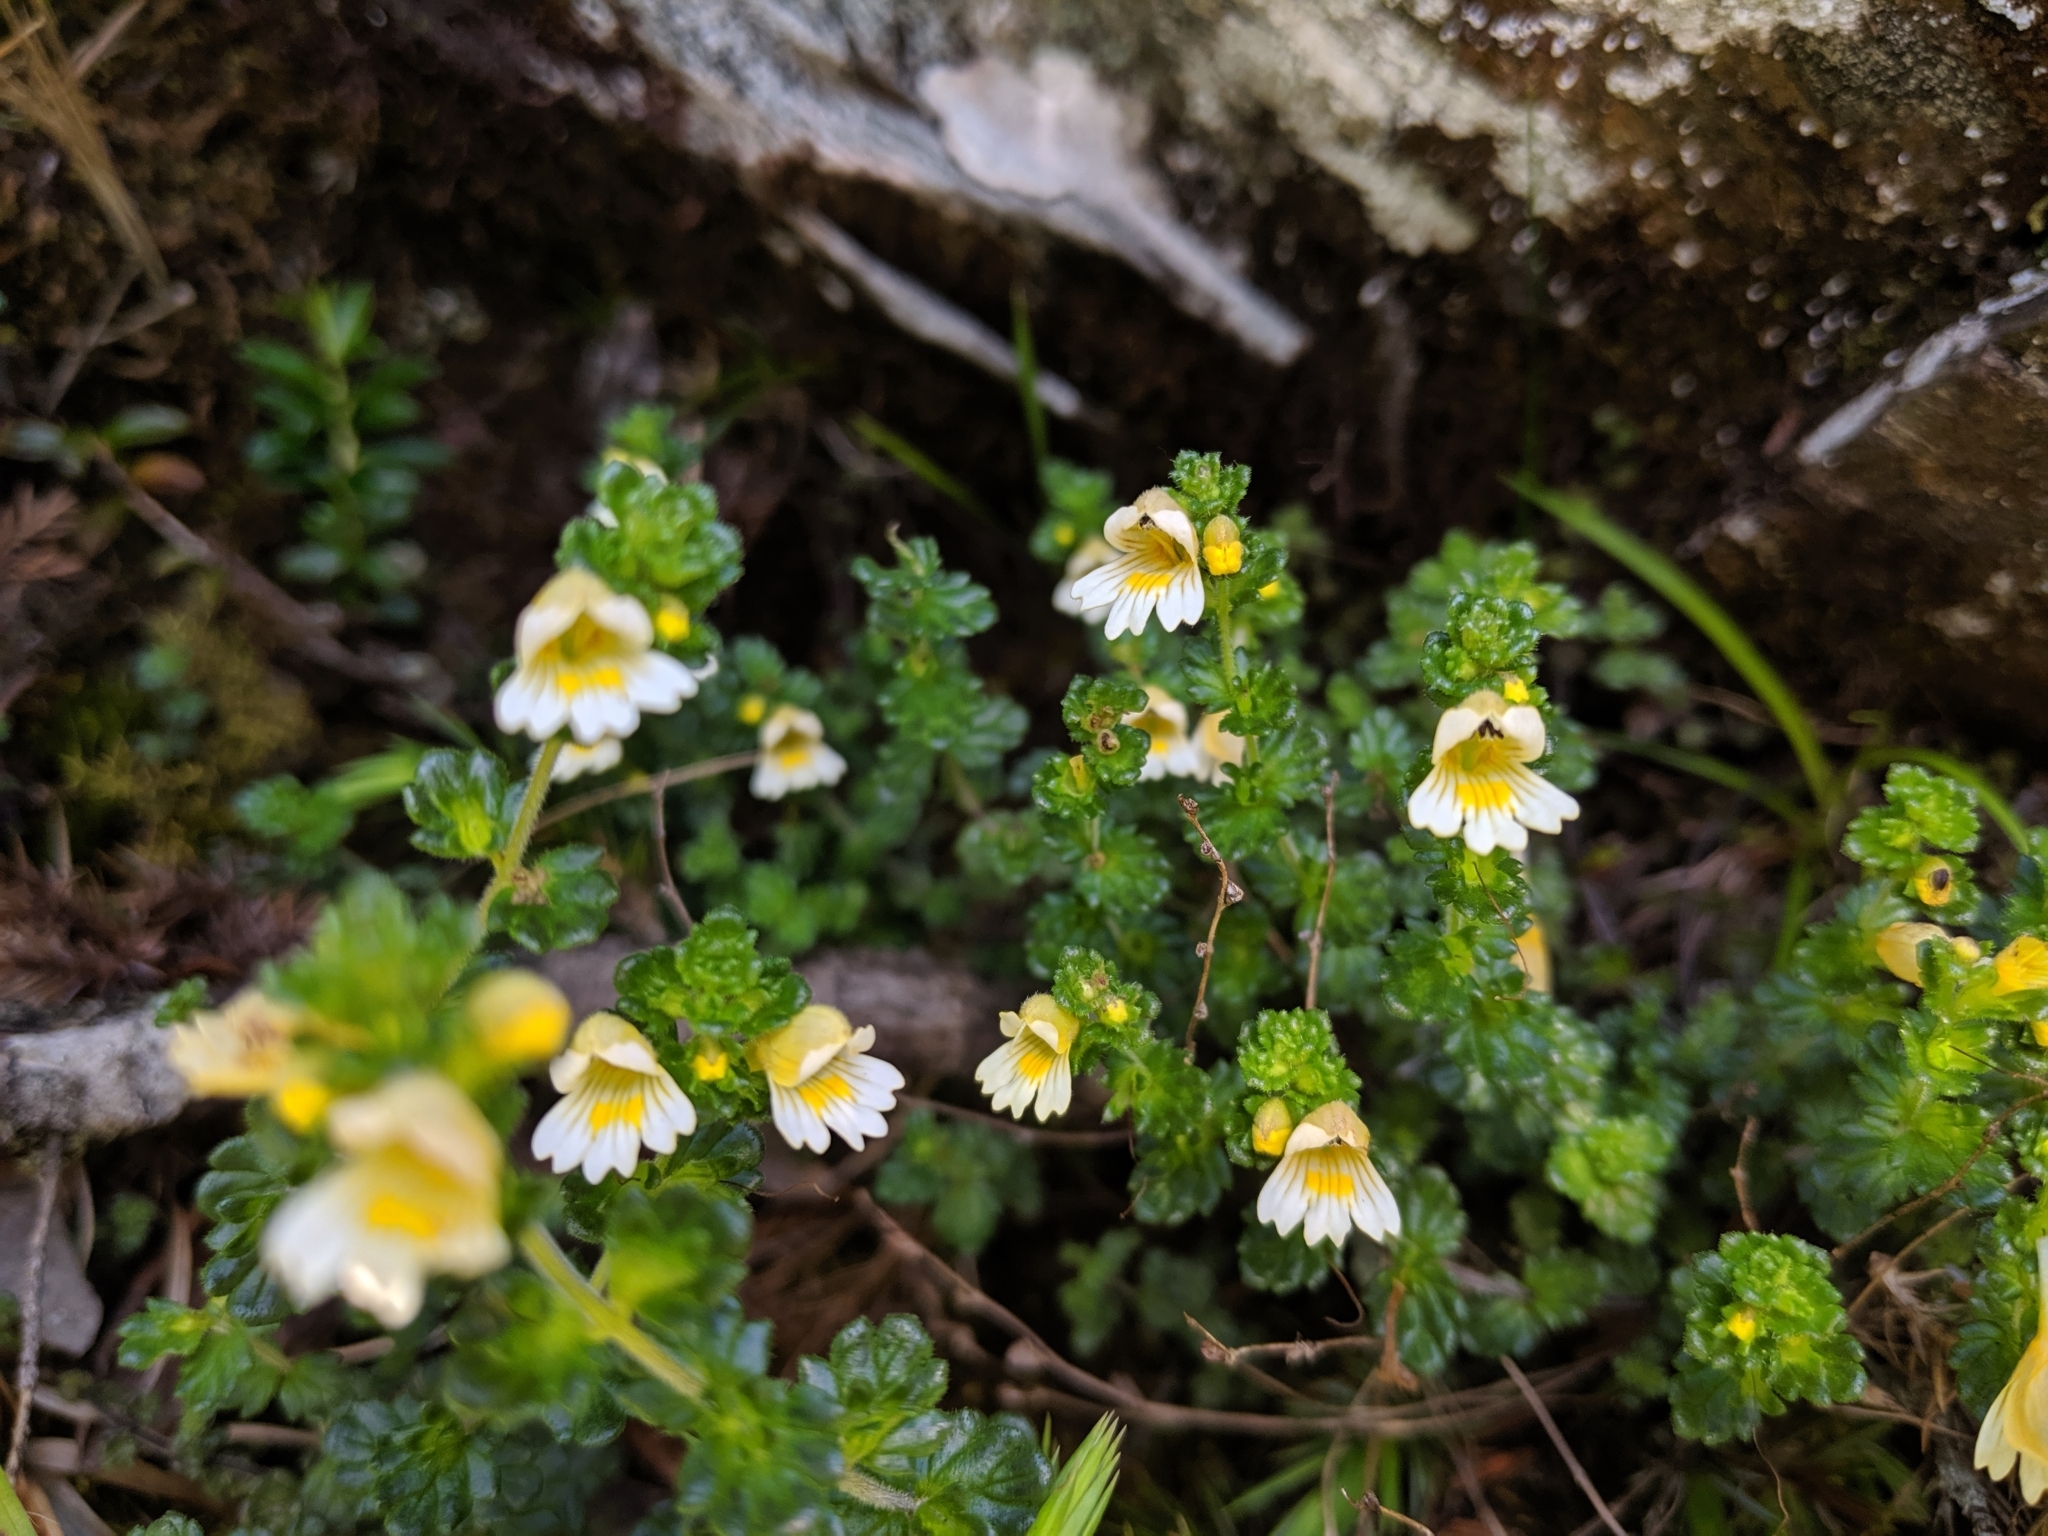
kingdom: Plantae
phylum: Tracheophyta
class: Magnoliopsida
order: Lamiales
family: Orobanchaceae
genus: Euphrasia
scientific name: Euphrasia transmorrisonensis
